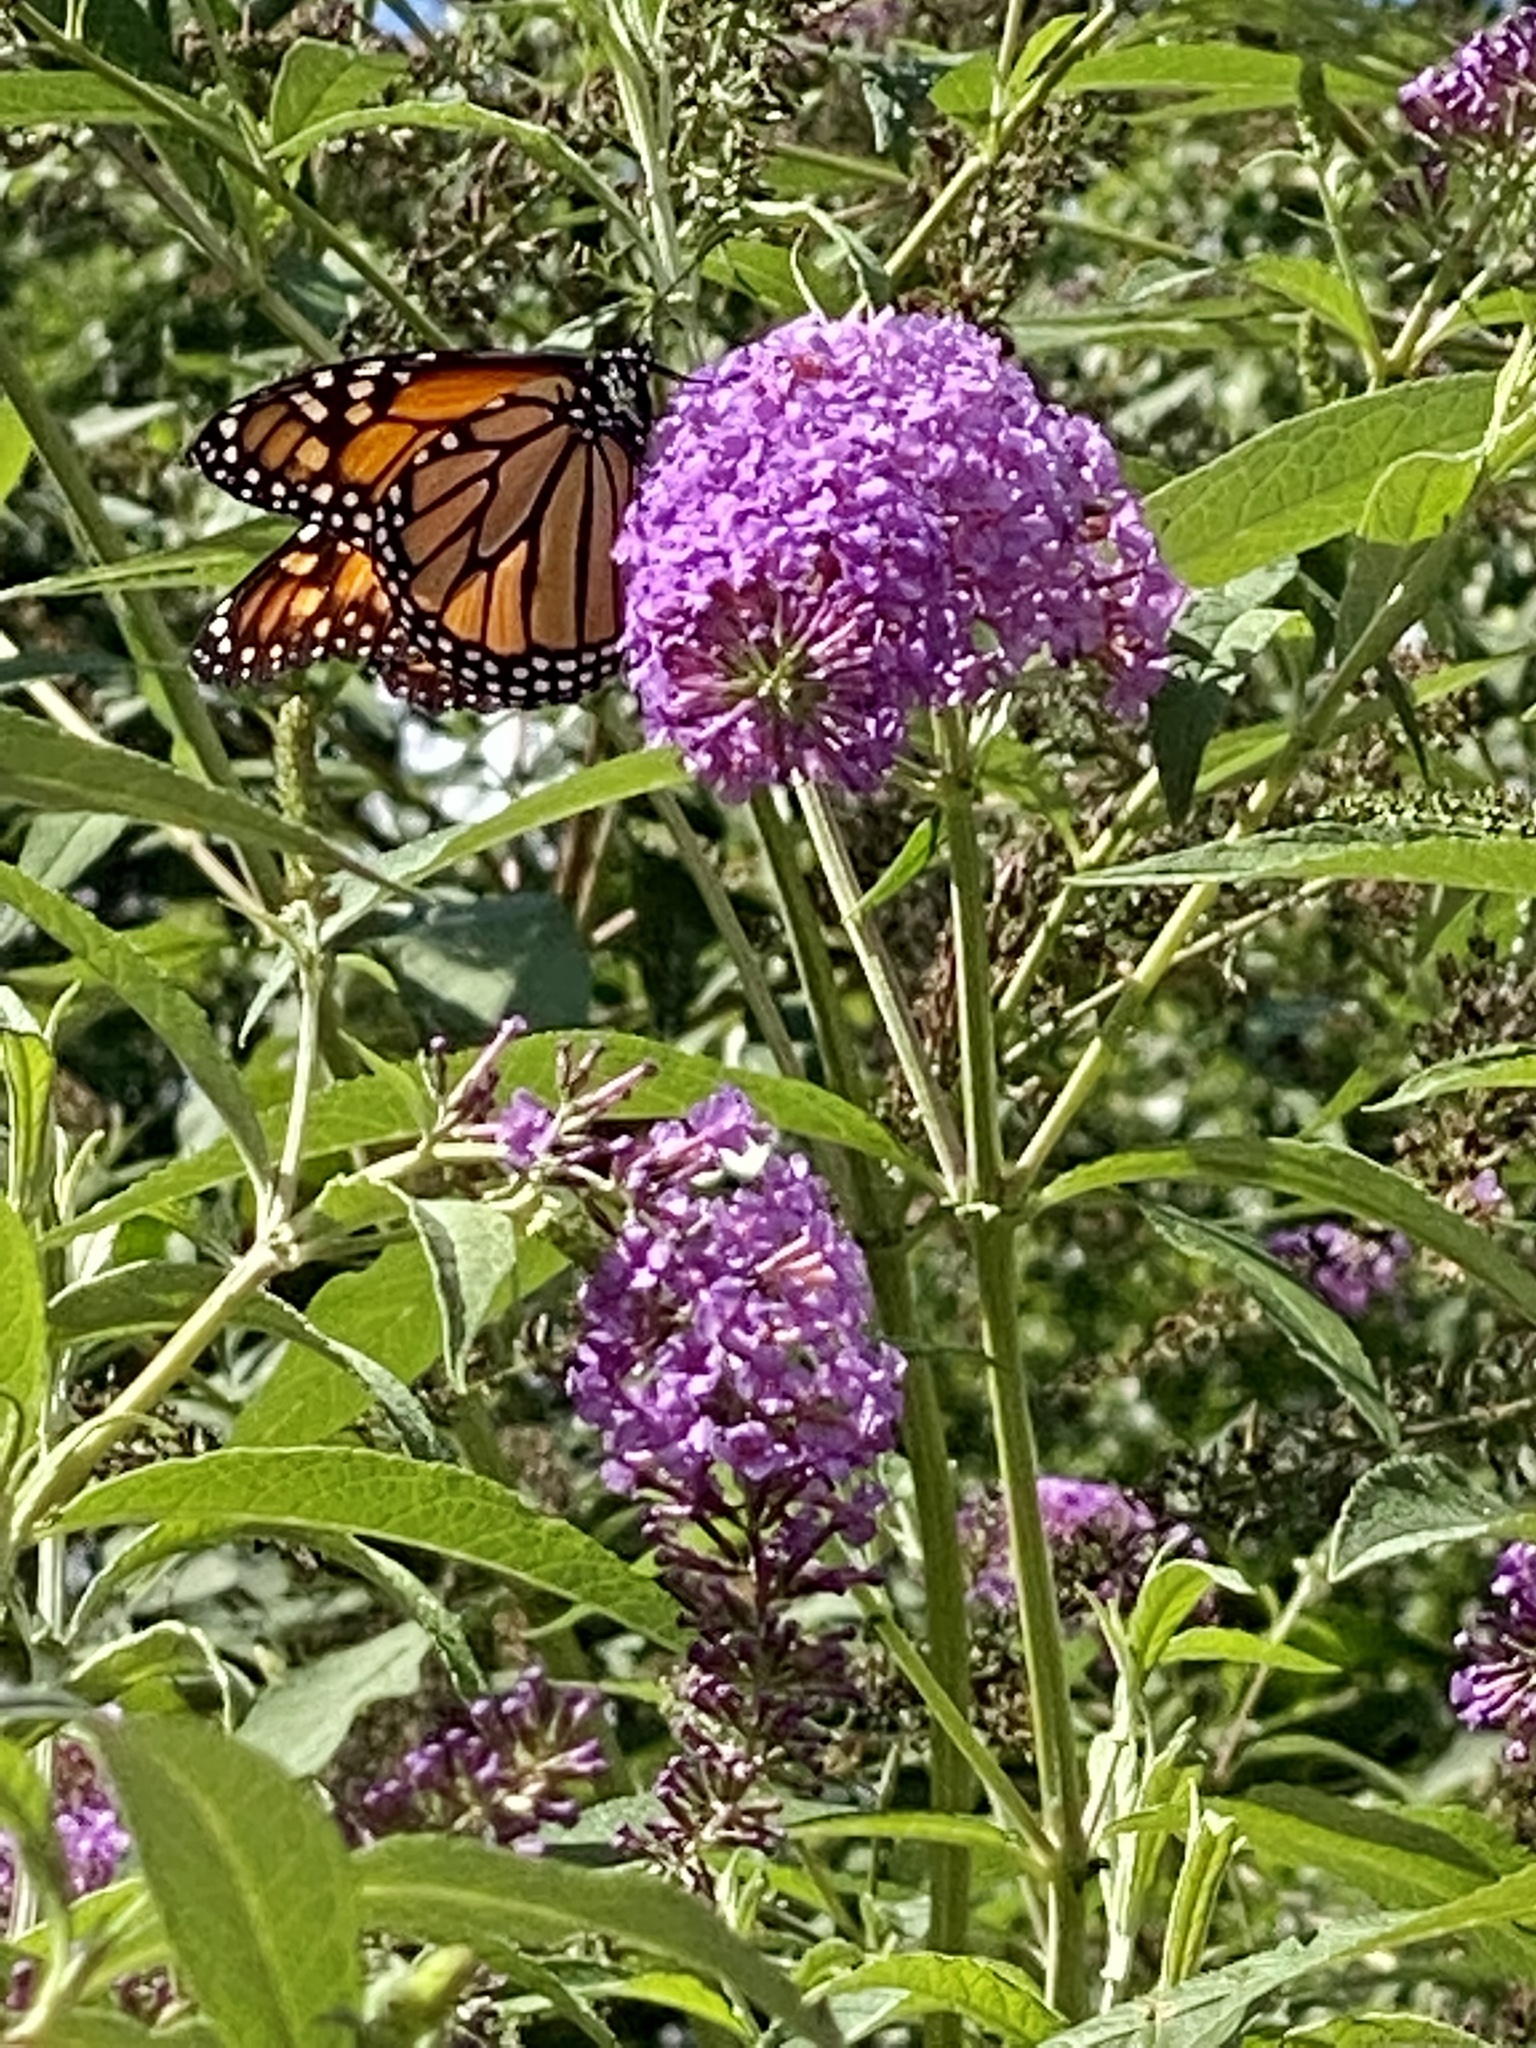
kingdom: Animalia
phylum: Arthropoda
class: Insecta
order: Lepidoptera
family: Nymphalidae
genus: Danaus
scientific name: Danaus plexippus
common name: Monarch
